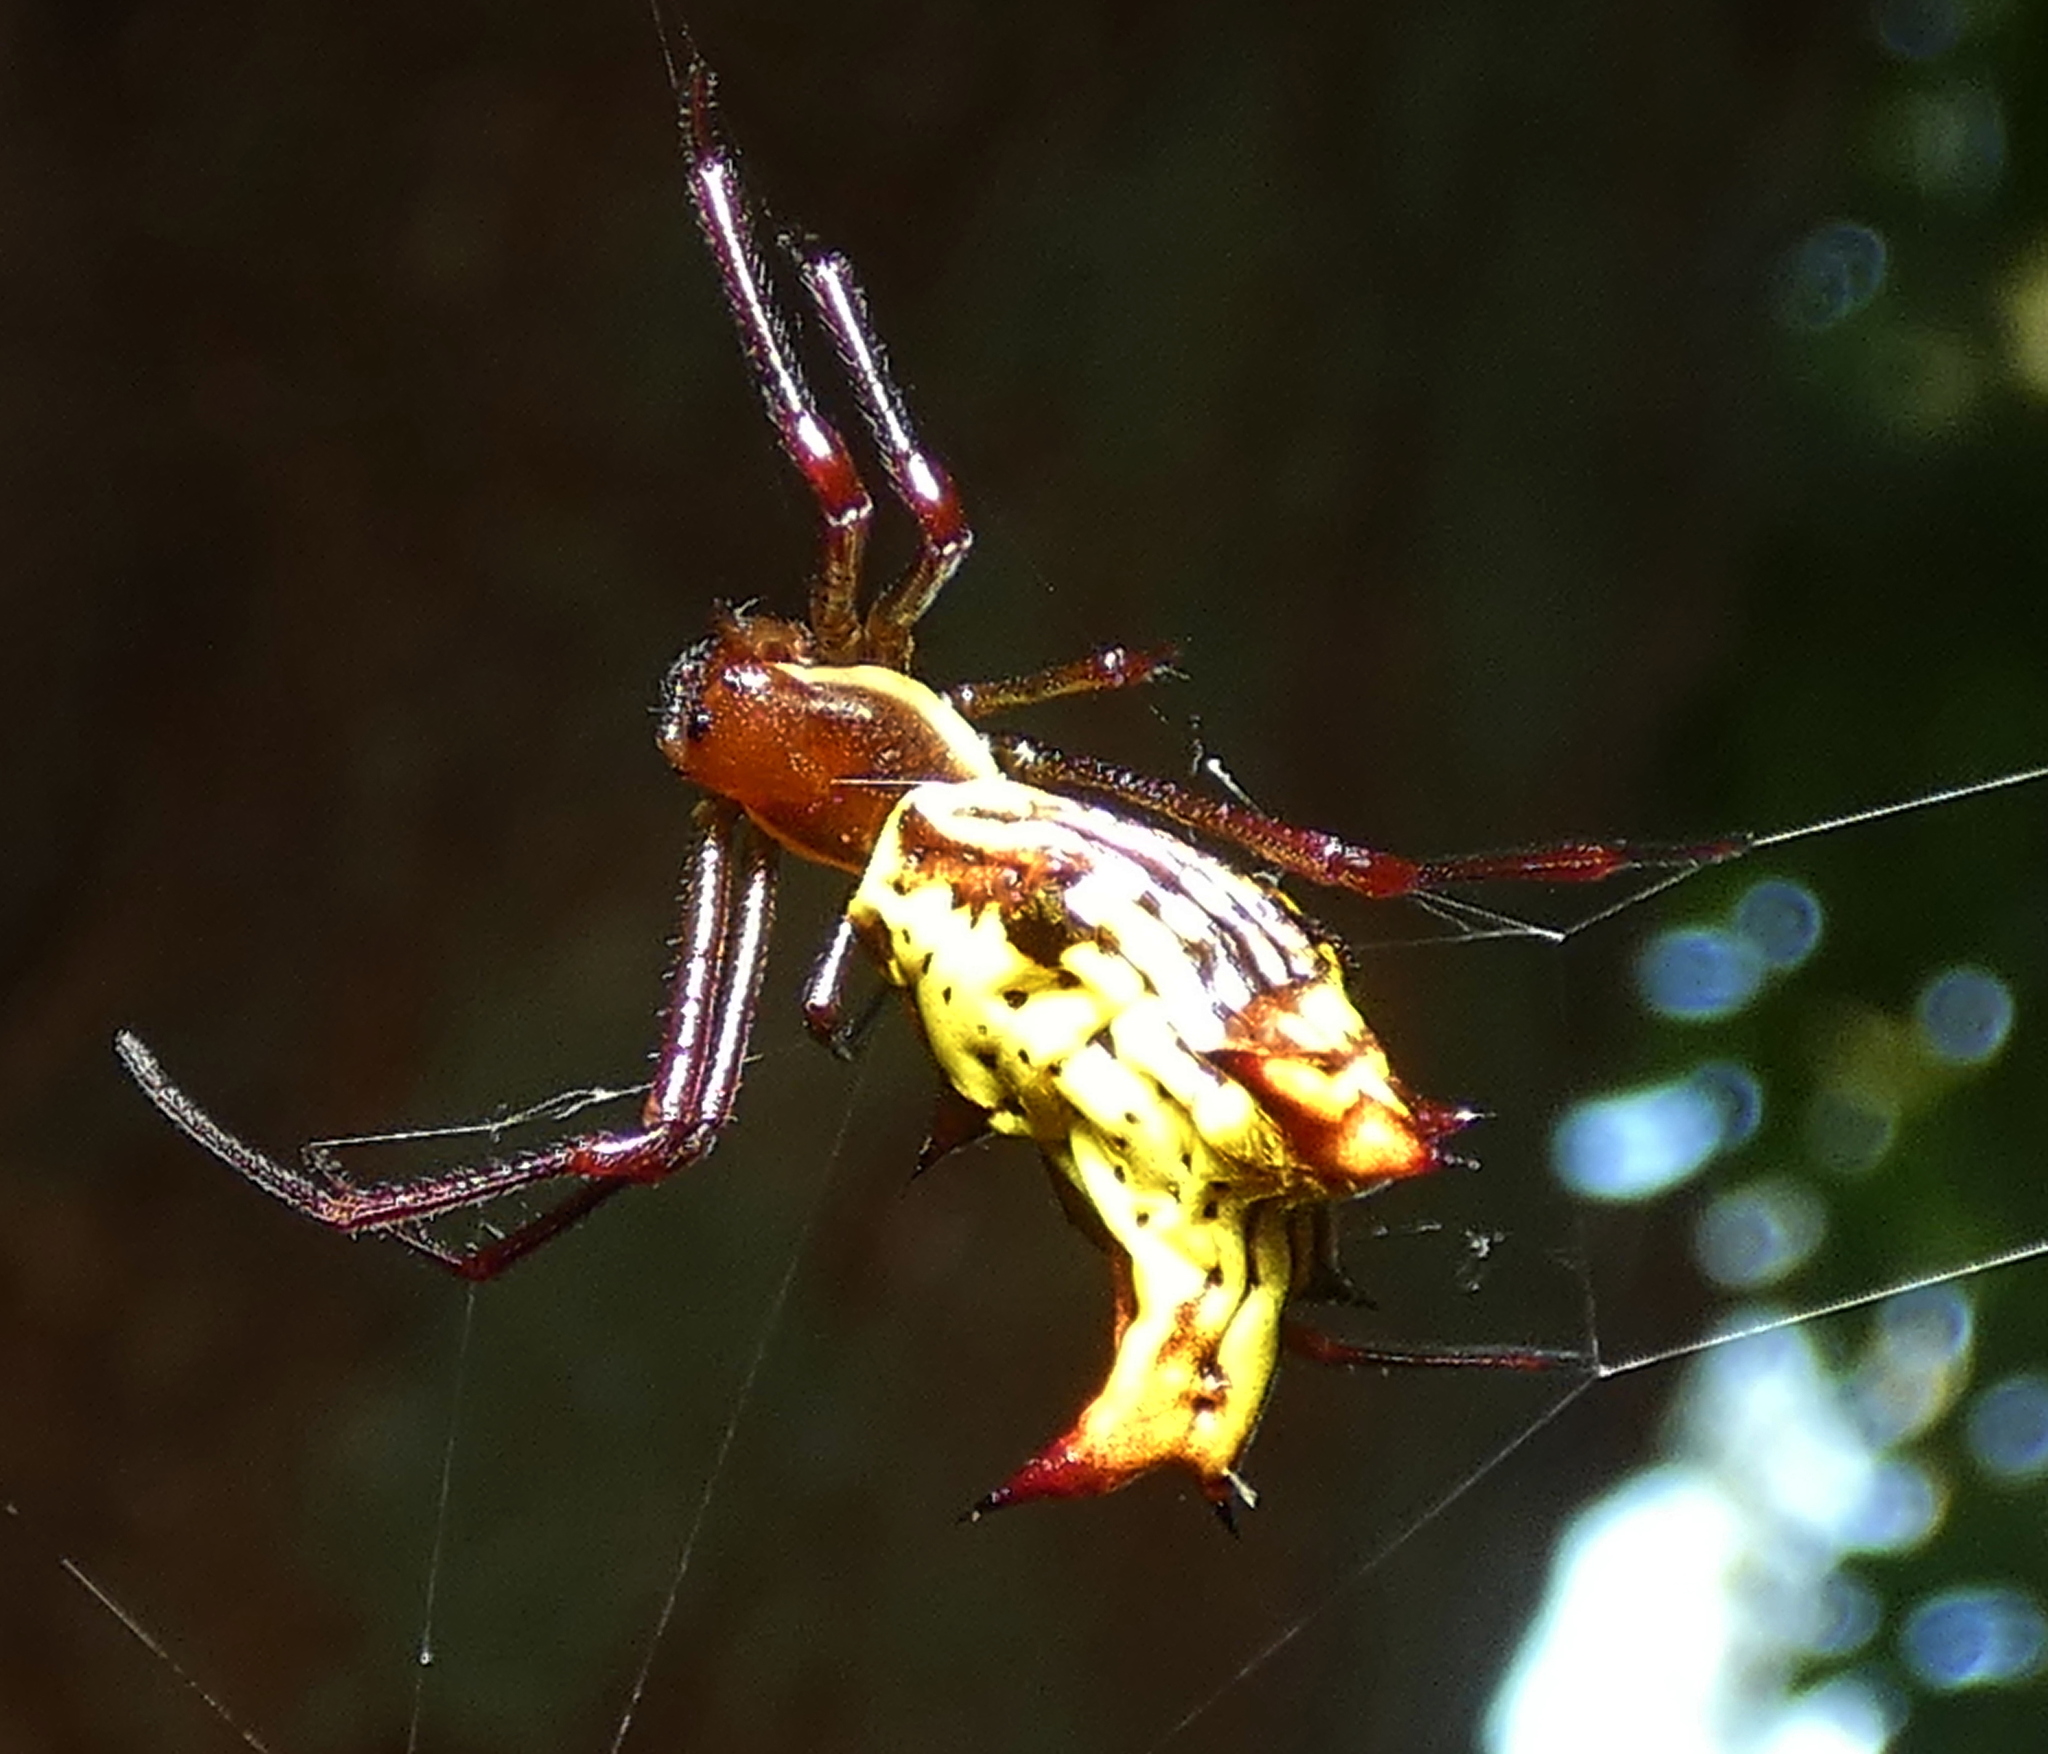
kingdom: Animalia
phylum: Arthropoda
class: Arachnida
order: Araneae
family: Araneidae
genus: Micrathena
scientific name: Micrathena fissispina
